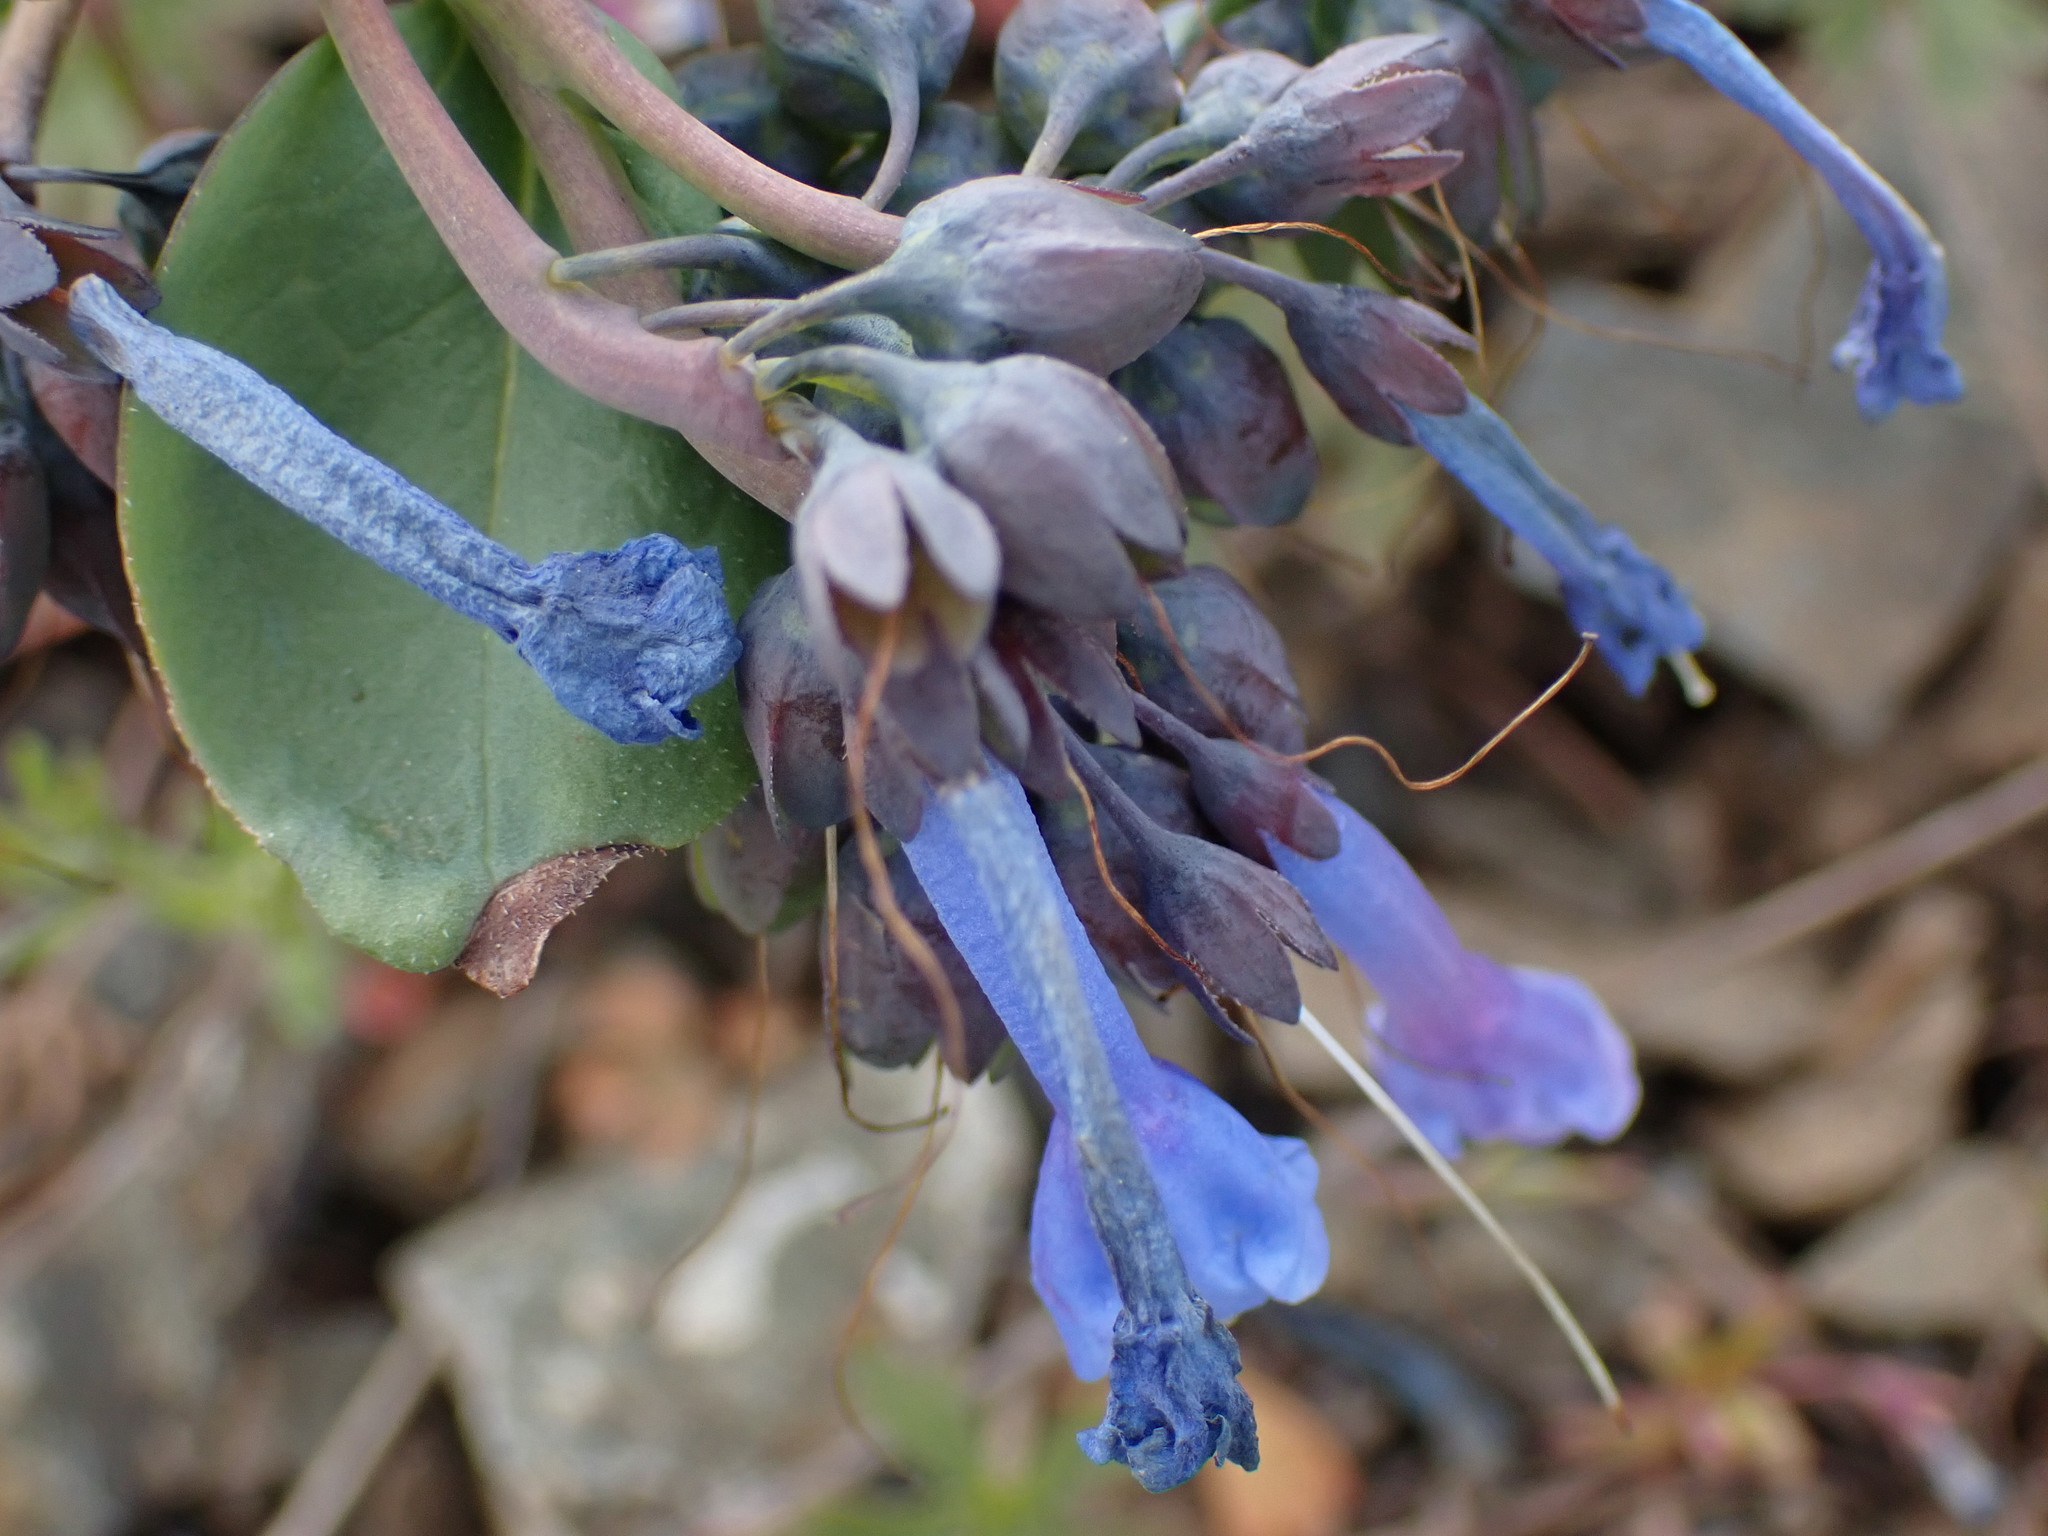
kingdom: Plantae
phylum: Tracheophyta
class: Magnoliopsida
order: Boraginales
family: Boraginaceae
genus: Mertensia
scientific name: Mertensia longiflora
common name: Large-flowered bluebells
